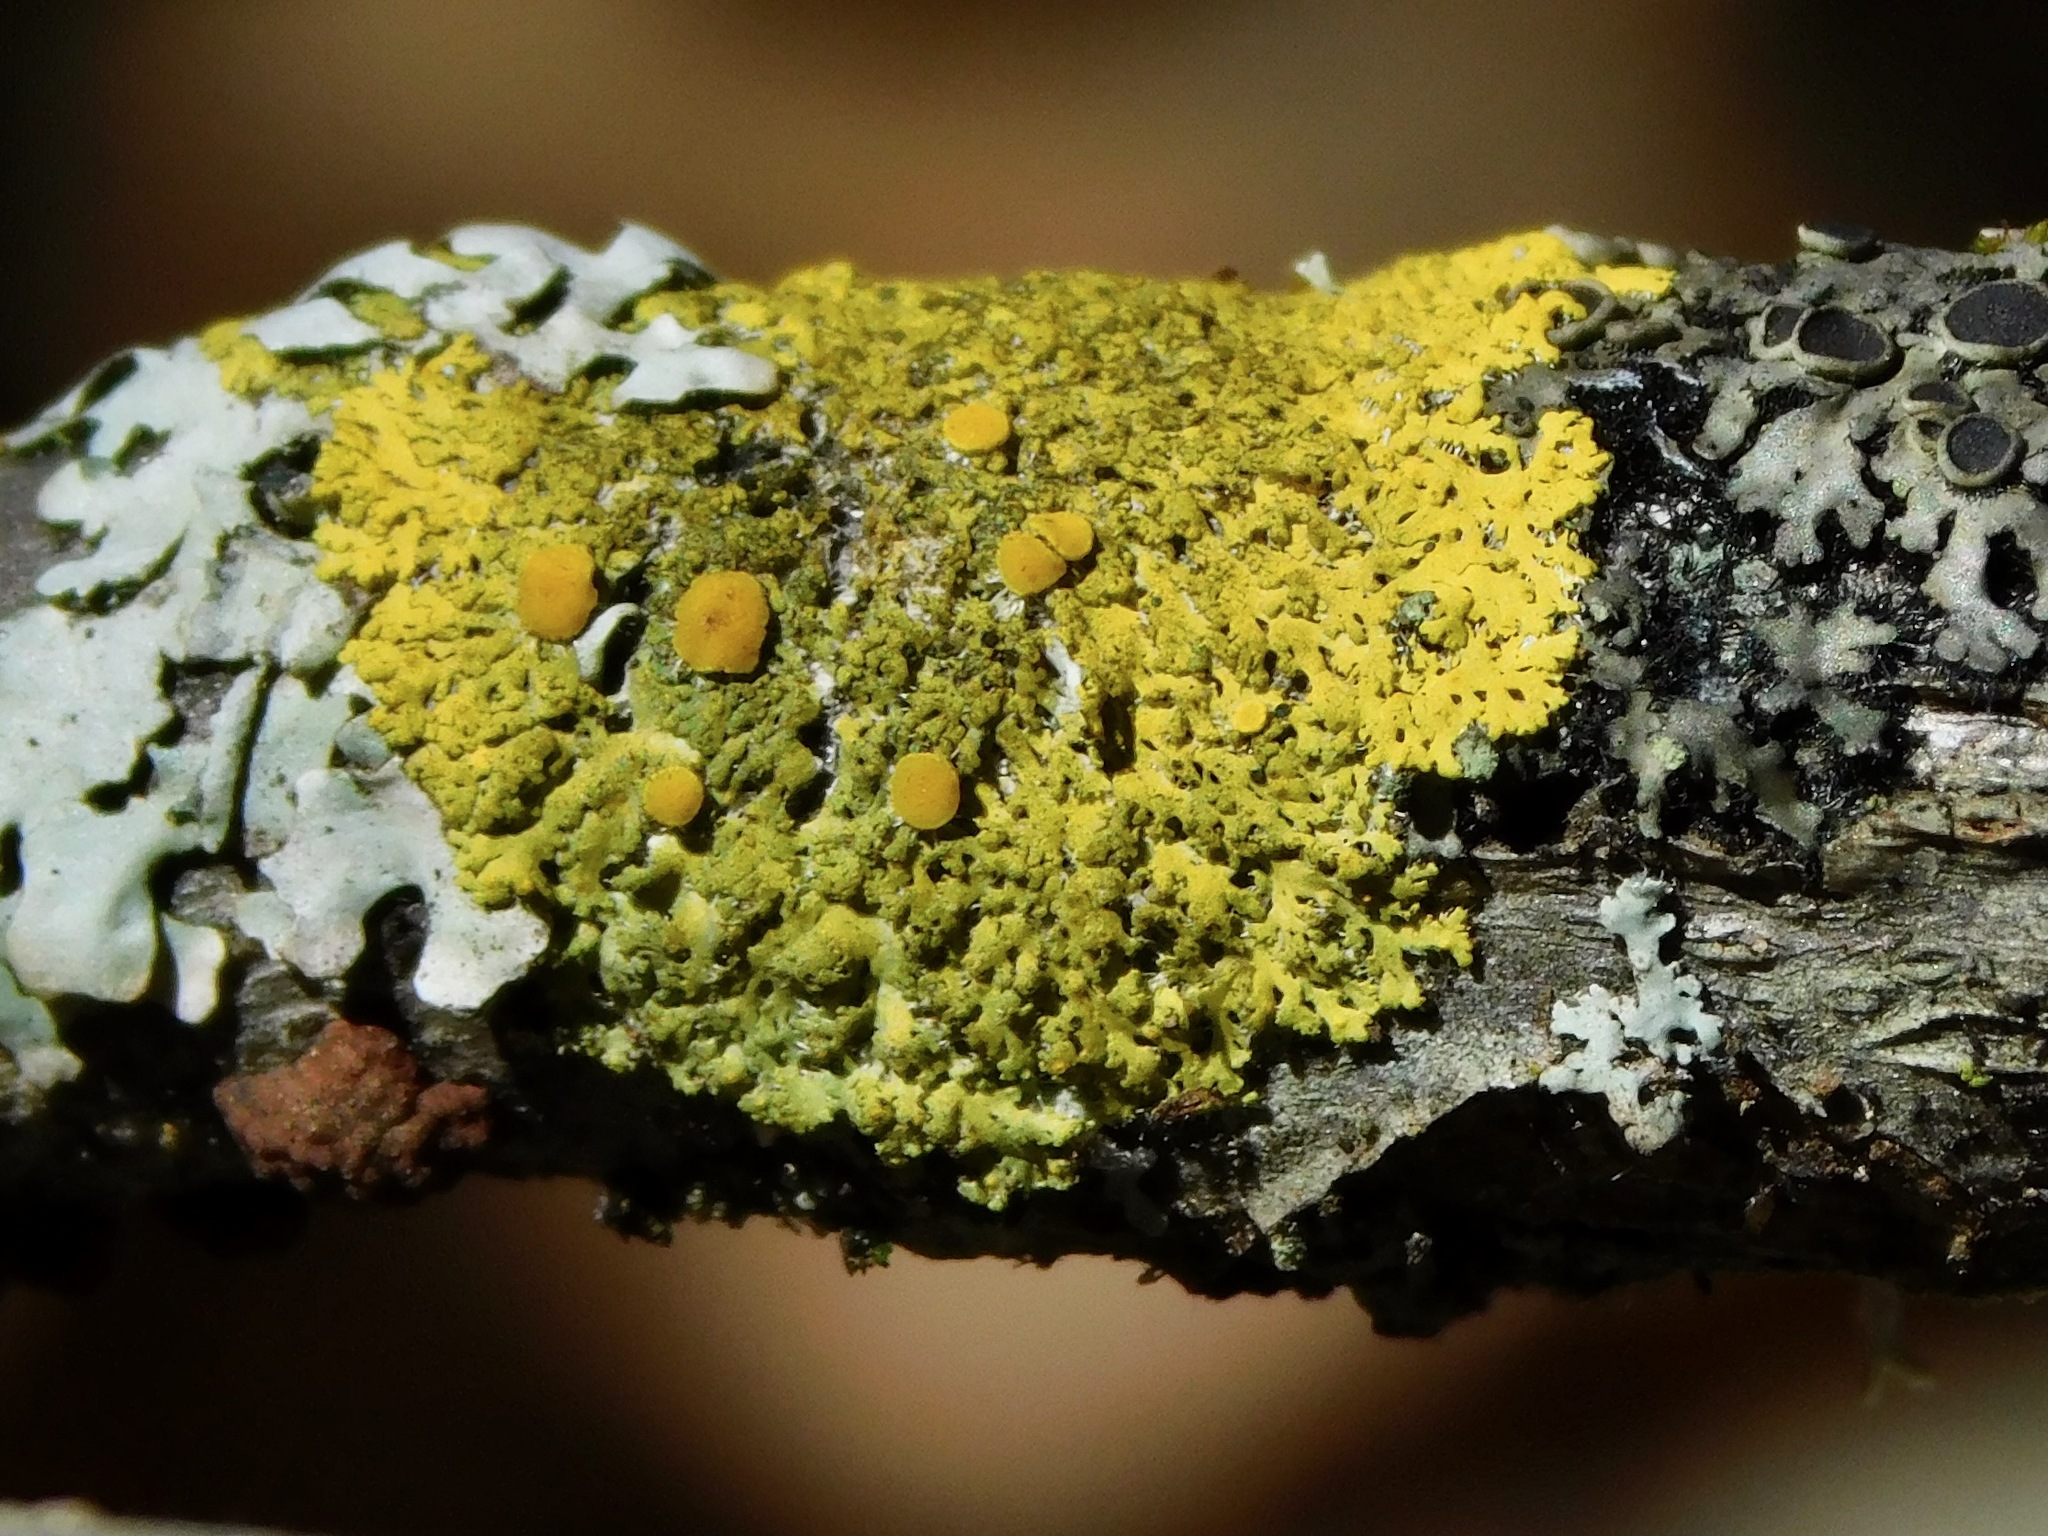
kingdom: Fungi
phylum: Ascomycota
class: Lecanoromycetes
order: Teloschistales
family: Teloschistaceae
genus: Gallowayella
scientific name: Gallowayella hasseana
